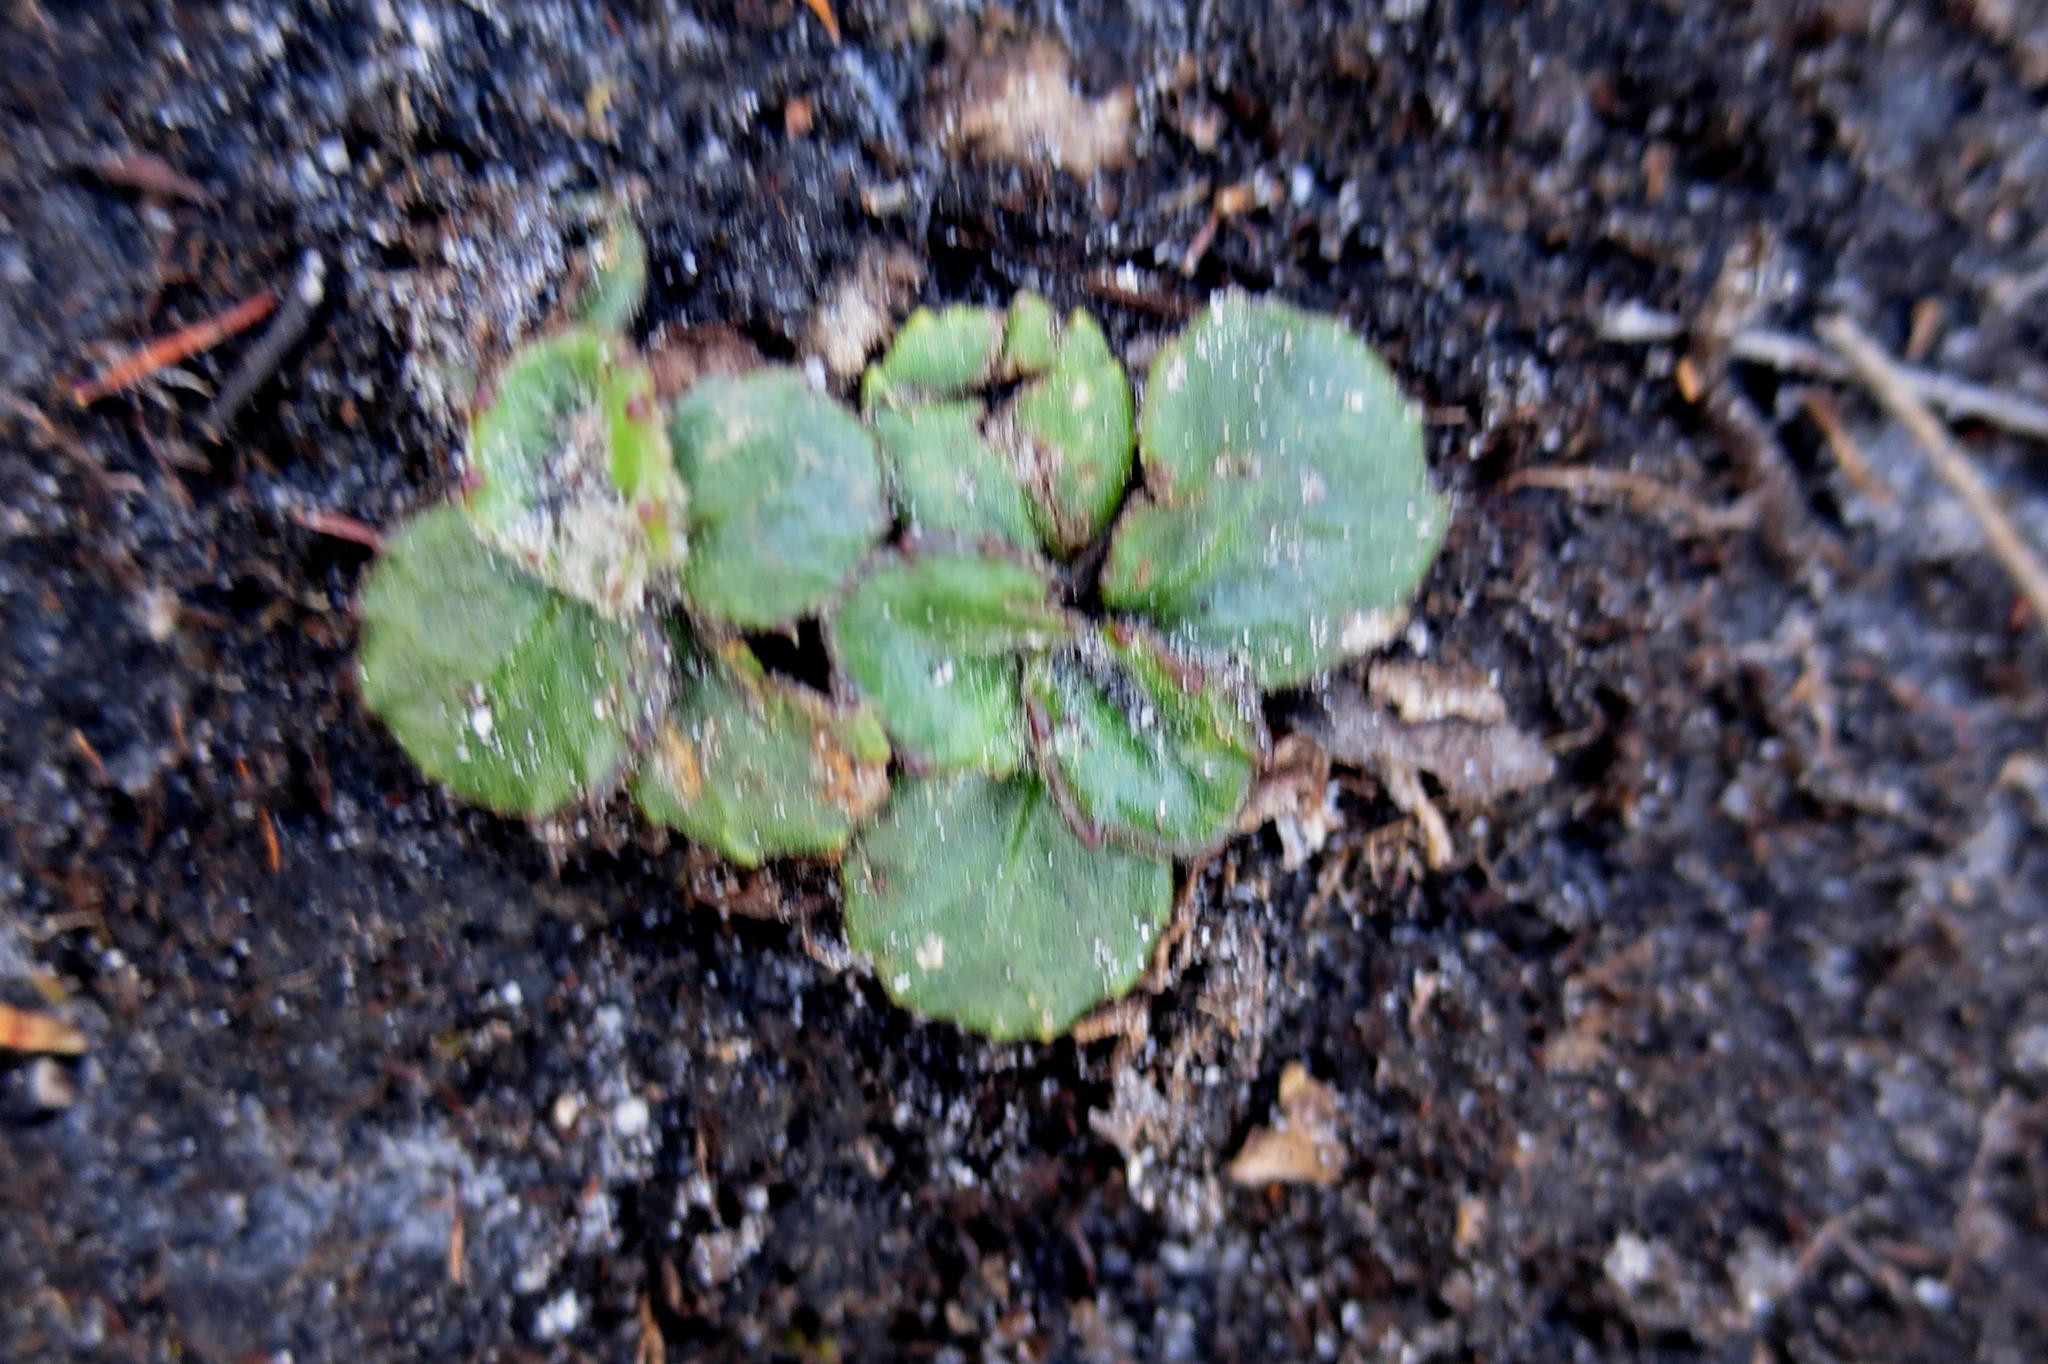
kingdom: Plantae
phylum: Tracheophyta
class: Magnoliopsida
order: Asterales
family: Campanulaceae
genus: Lobelia
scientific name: Lobelia ardisiandroides
